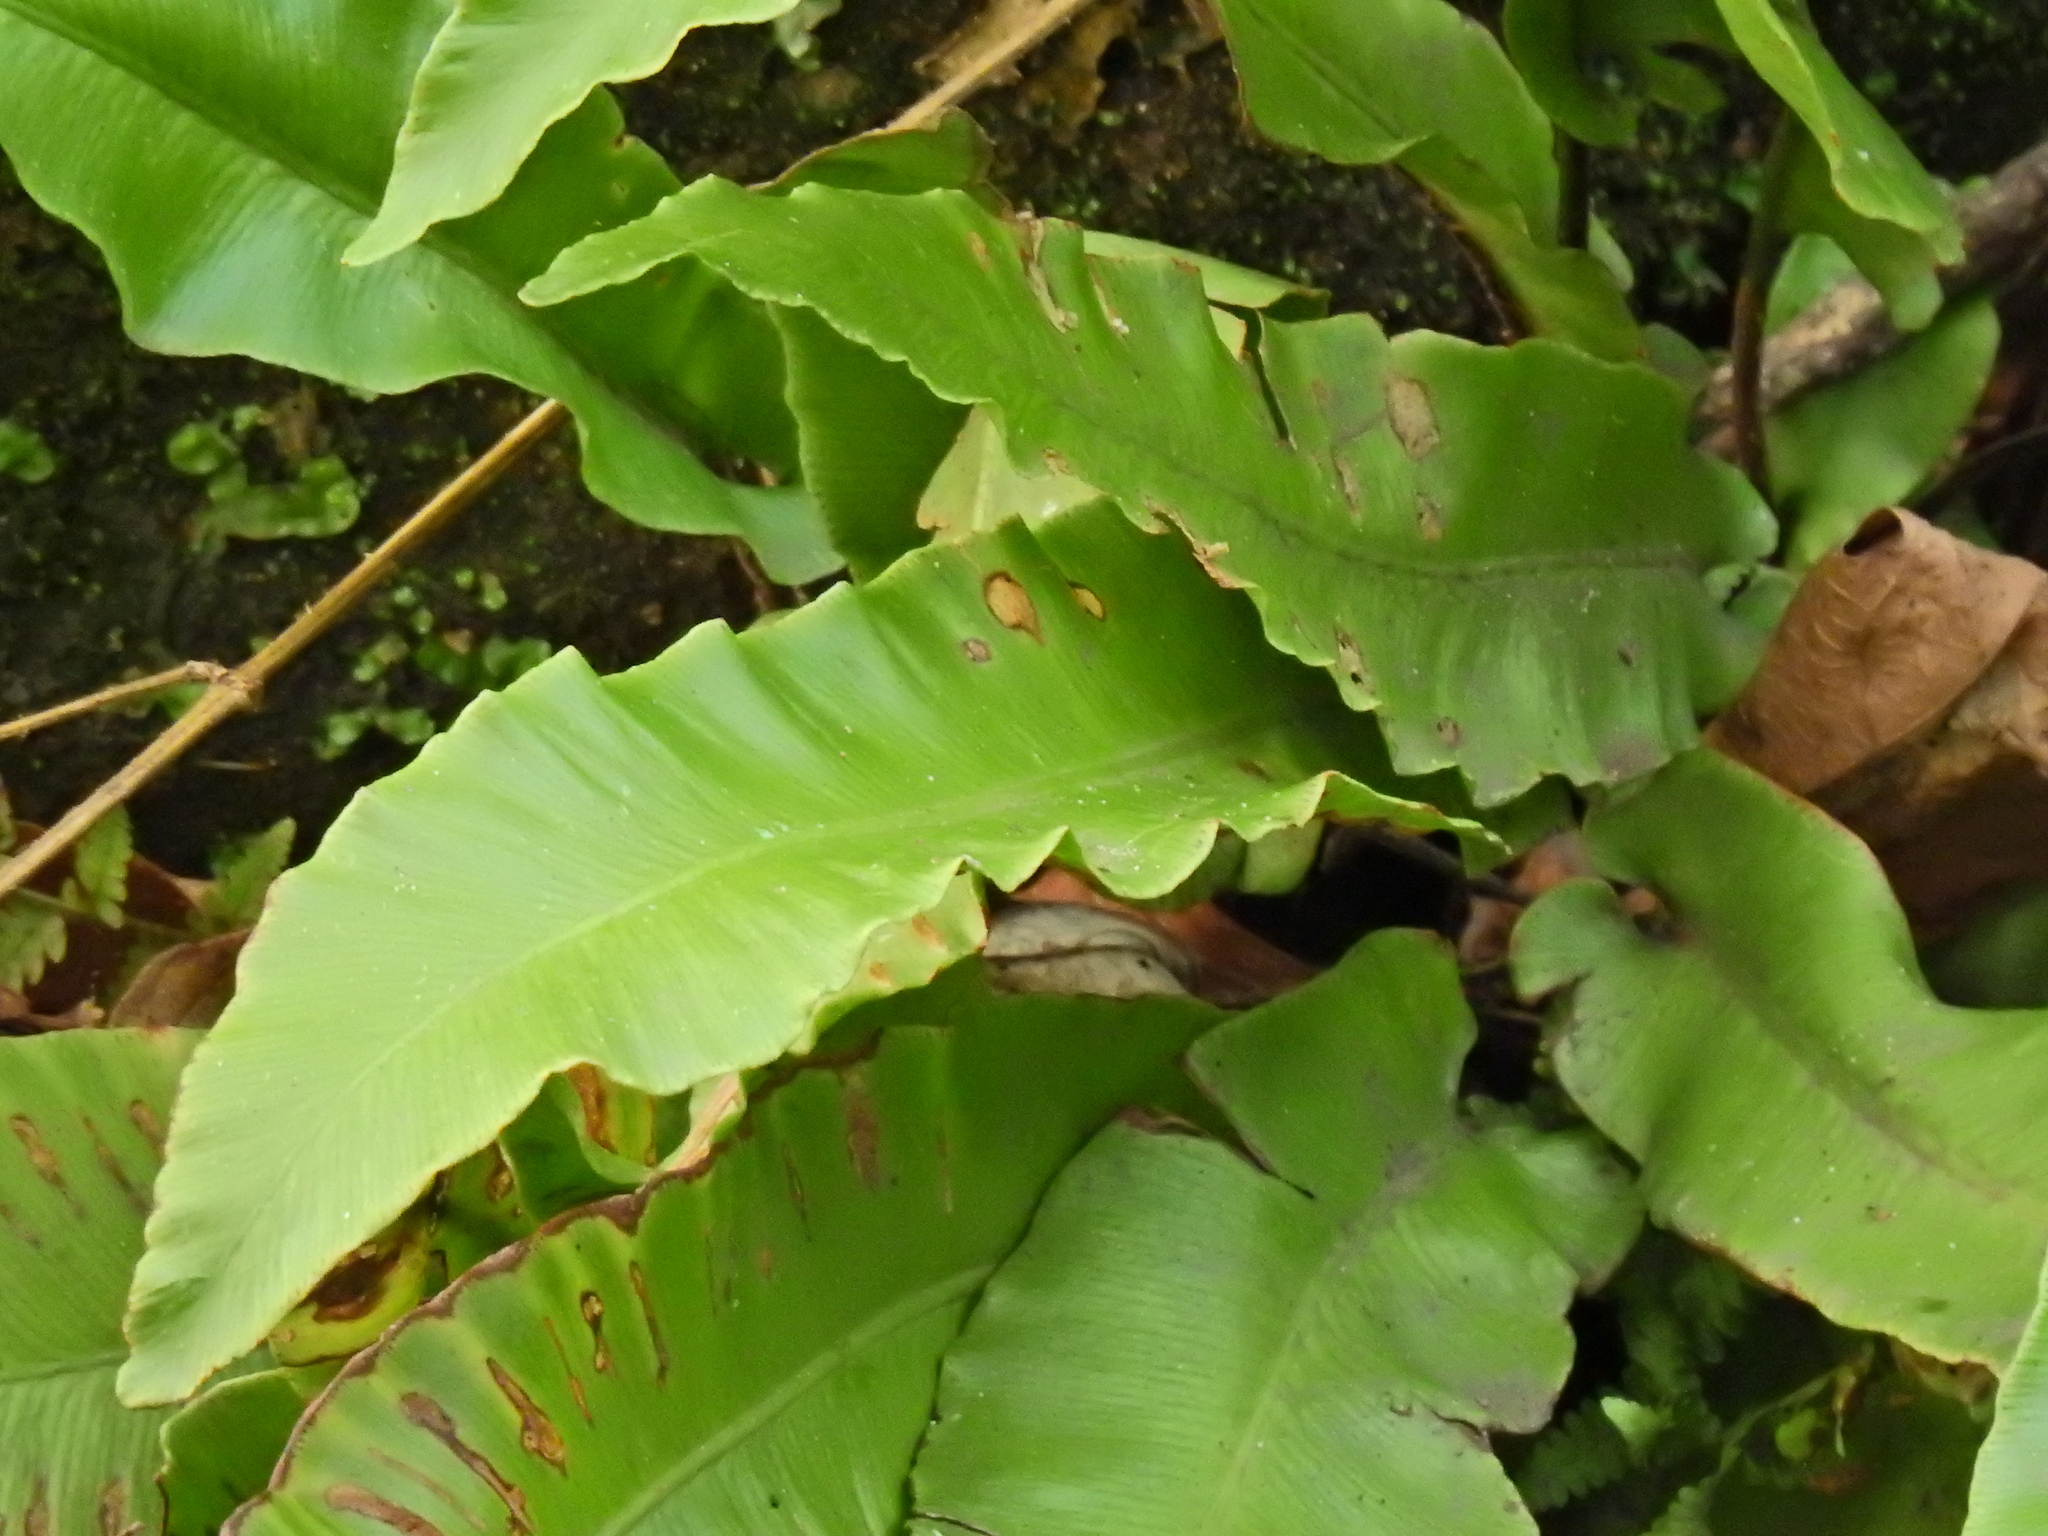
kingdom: Plantae
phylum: Tracheophyta
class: Polypodiopsida
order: Polypodiales
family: Aspleniaceae
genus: Asplenium
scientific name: Asplenium scolopendrium
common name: Hart's-tongue fern
